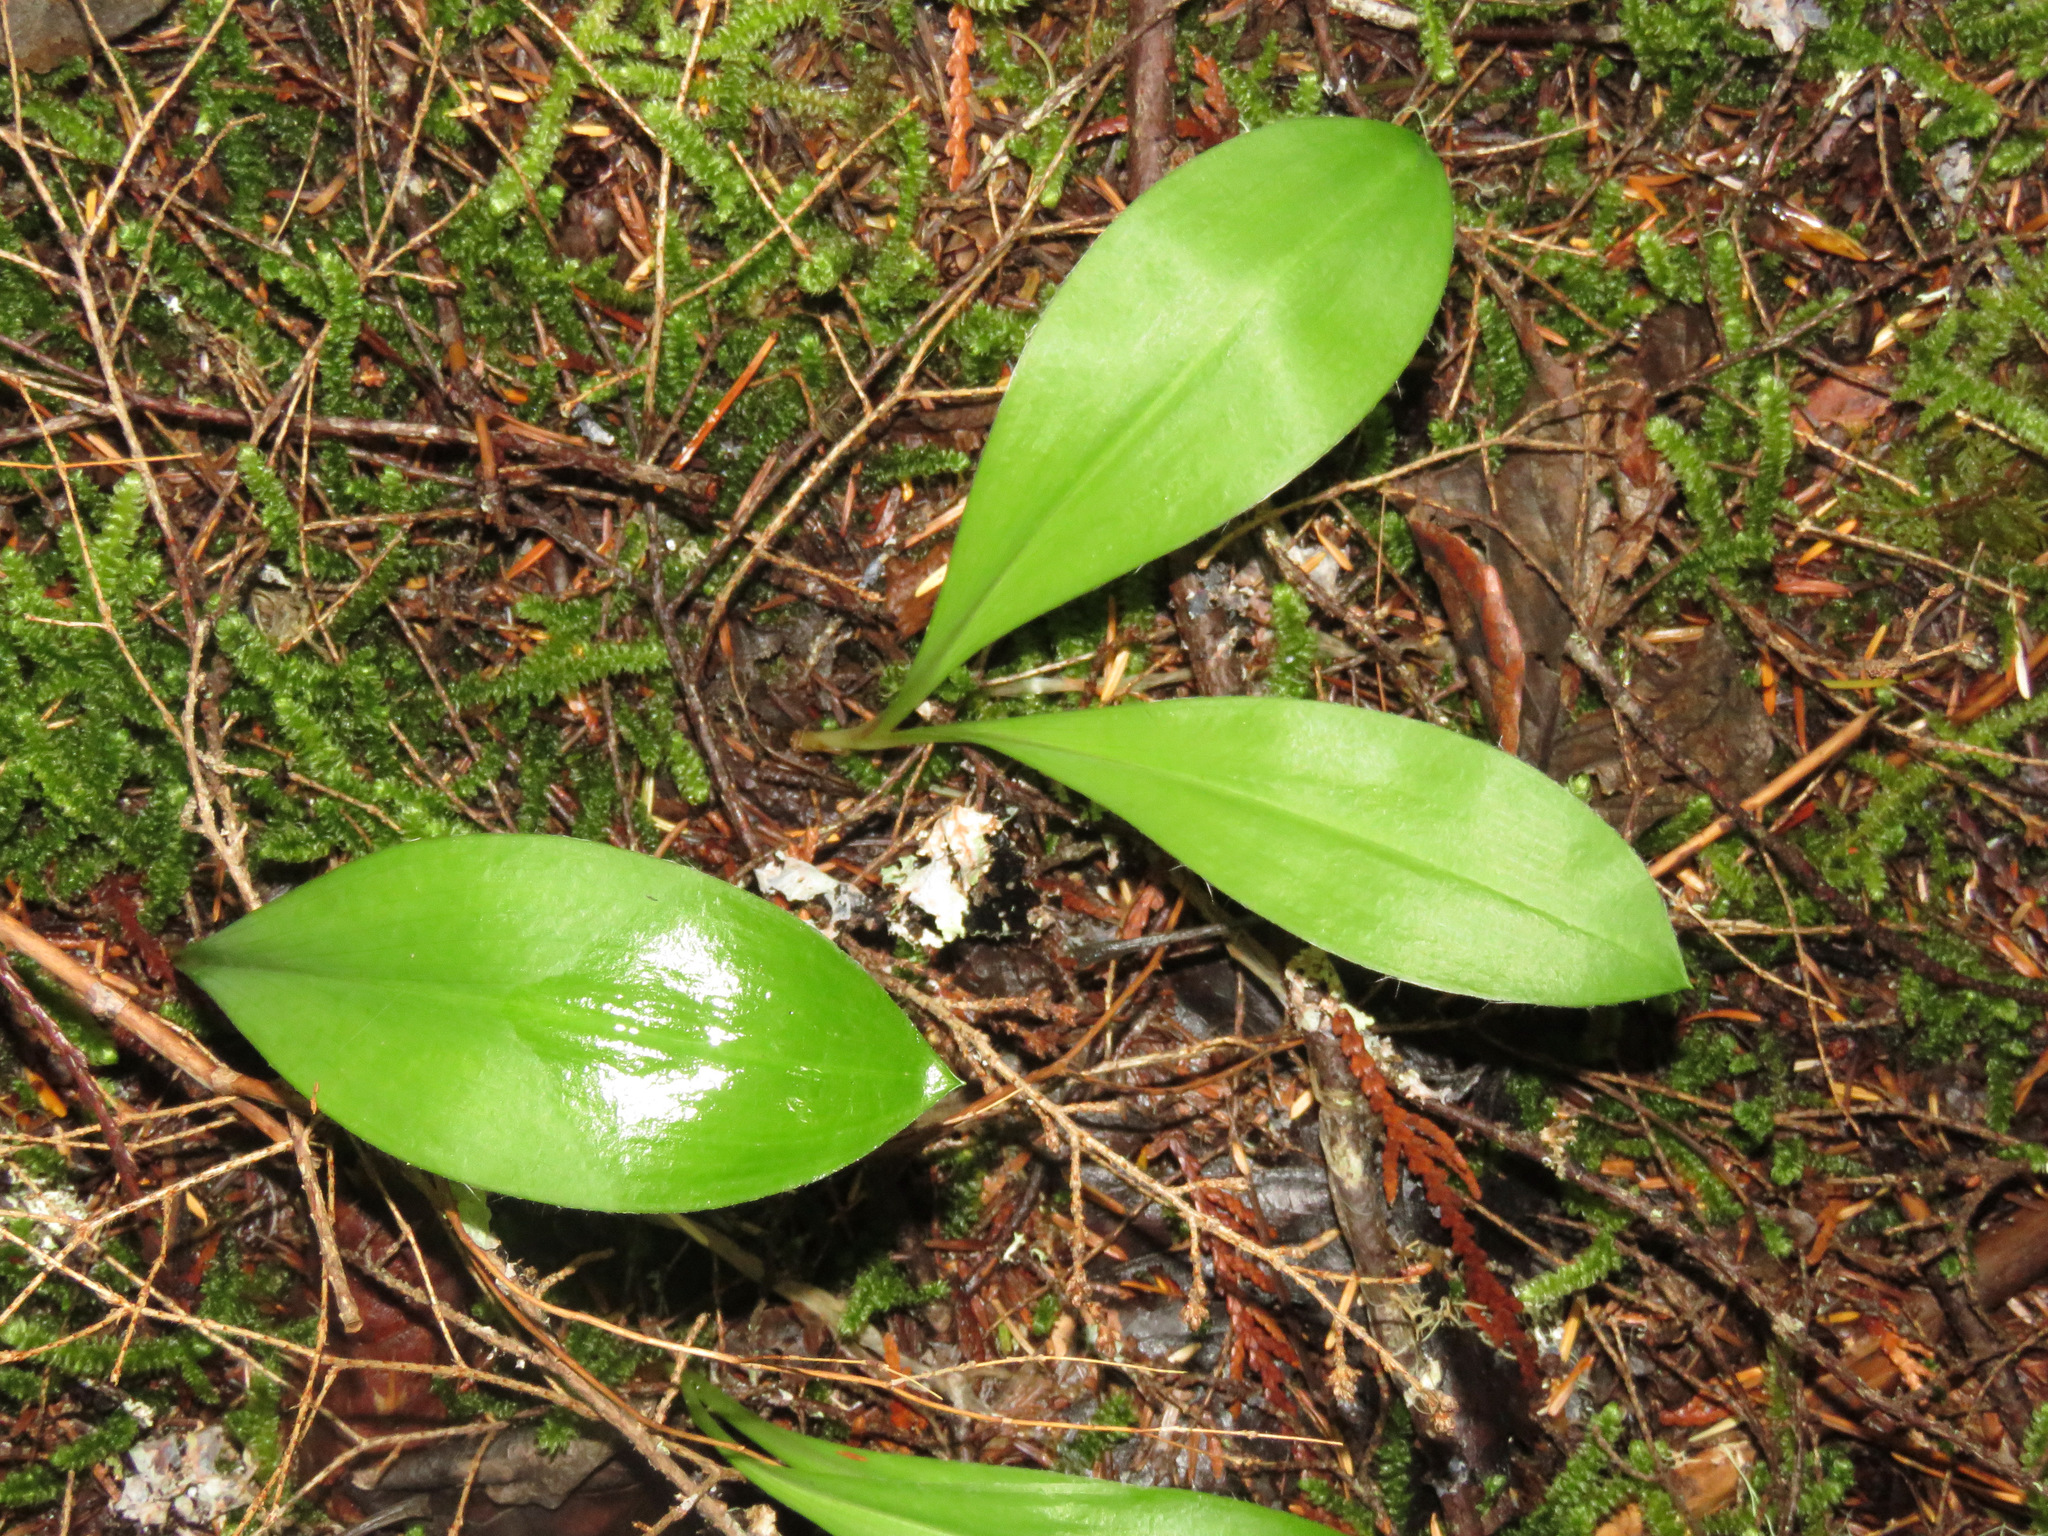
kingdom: Plantae
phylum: Tracheophyta
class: Liliopsida
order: Liliales
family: Liliaceae
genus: Clintonia
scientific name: Clintonia uniflora
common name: Queen's cup
